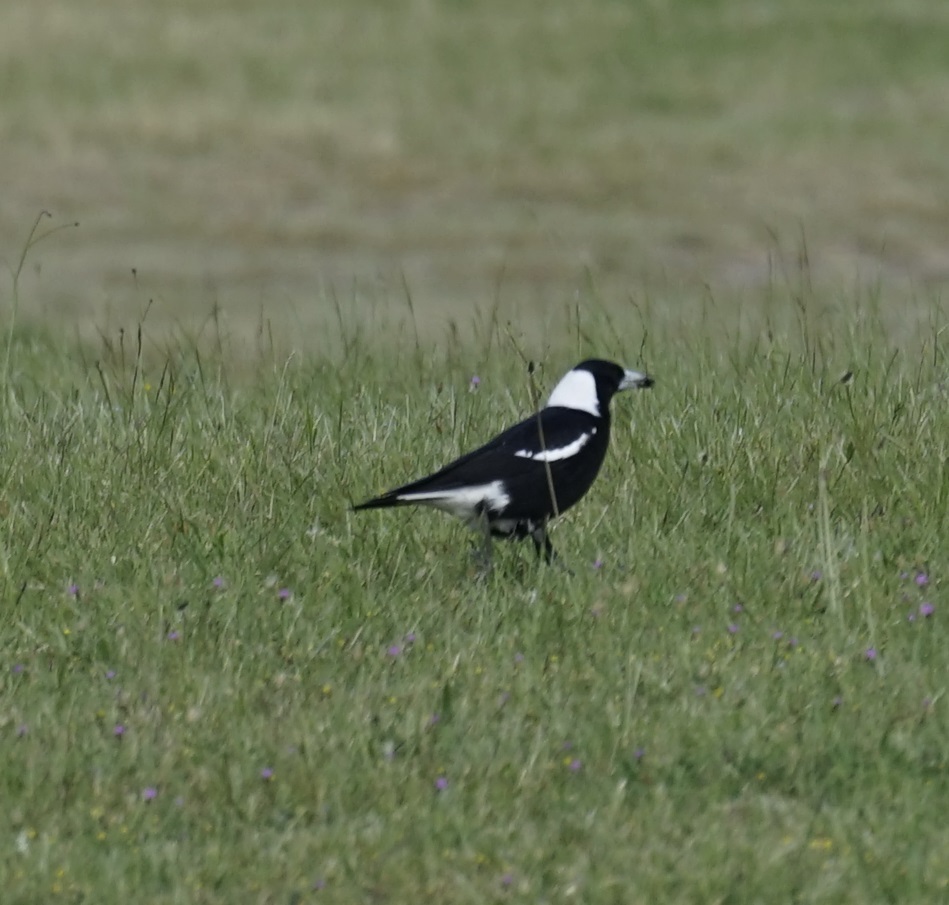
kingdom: Animalia
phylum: Chordata
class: Aves
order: Passeriformes
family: Cracticidae
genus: Gymnorhina
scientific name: Gymnorhina tibicen
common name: Australian magpie
